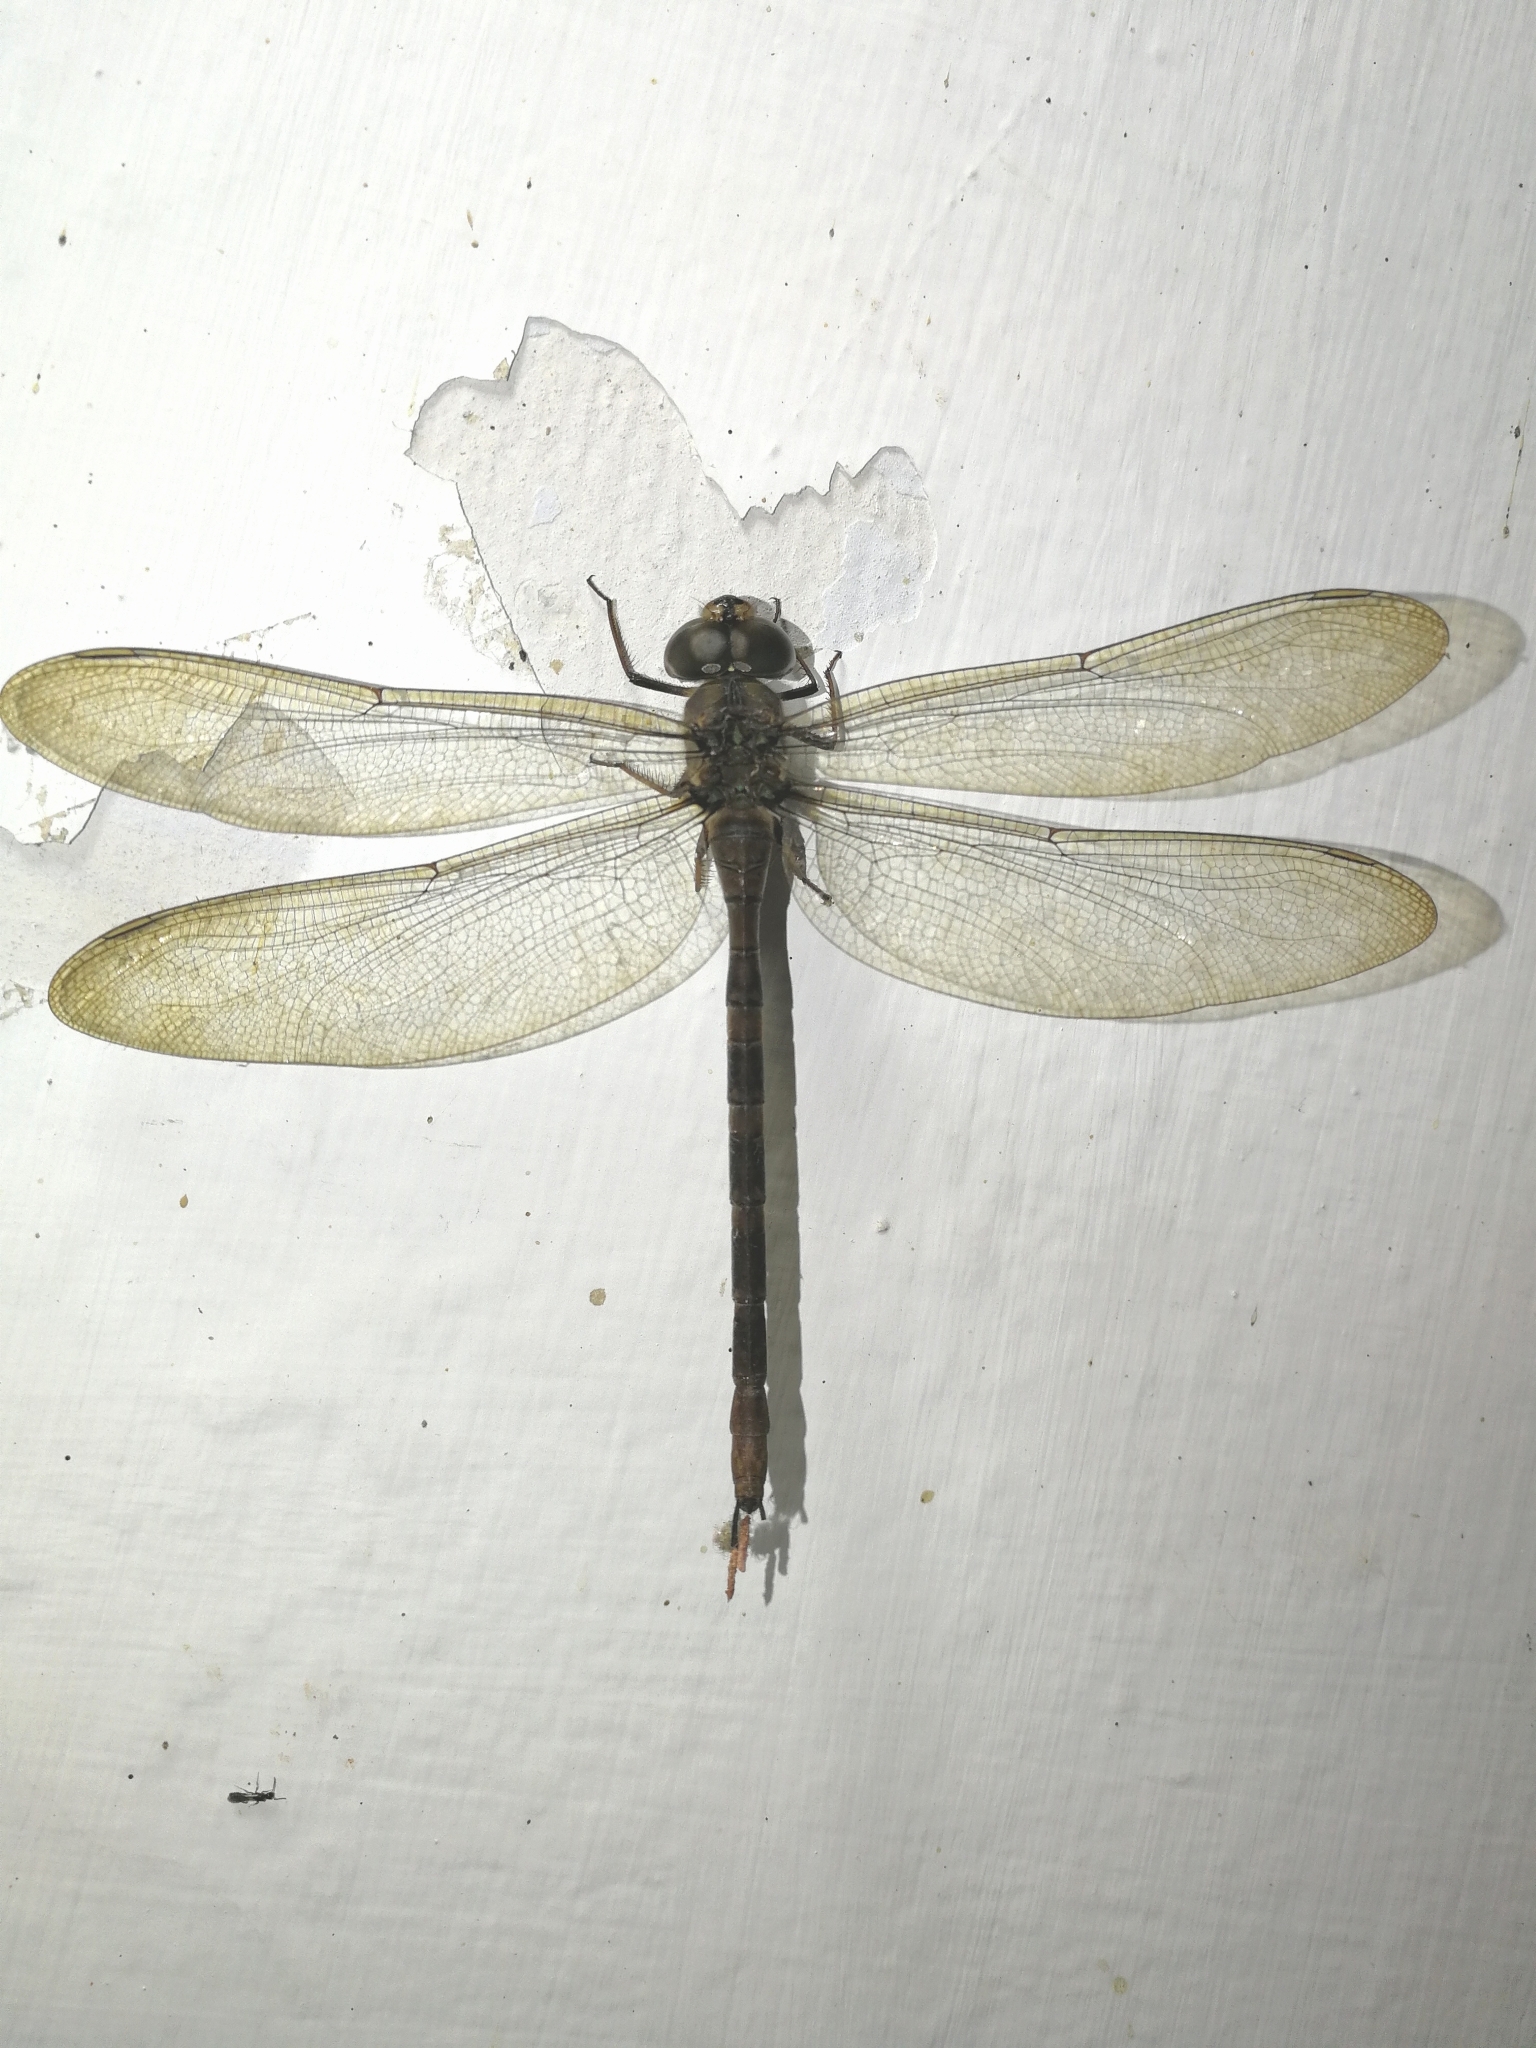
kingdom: Animalia
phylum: Arthropoda
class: Insecta
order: Odonata
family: Aeshnidae
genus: Gynacantha
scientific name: Gynacantha dravida
